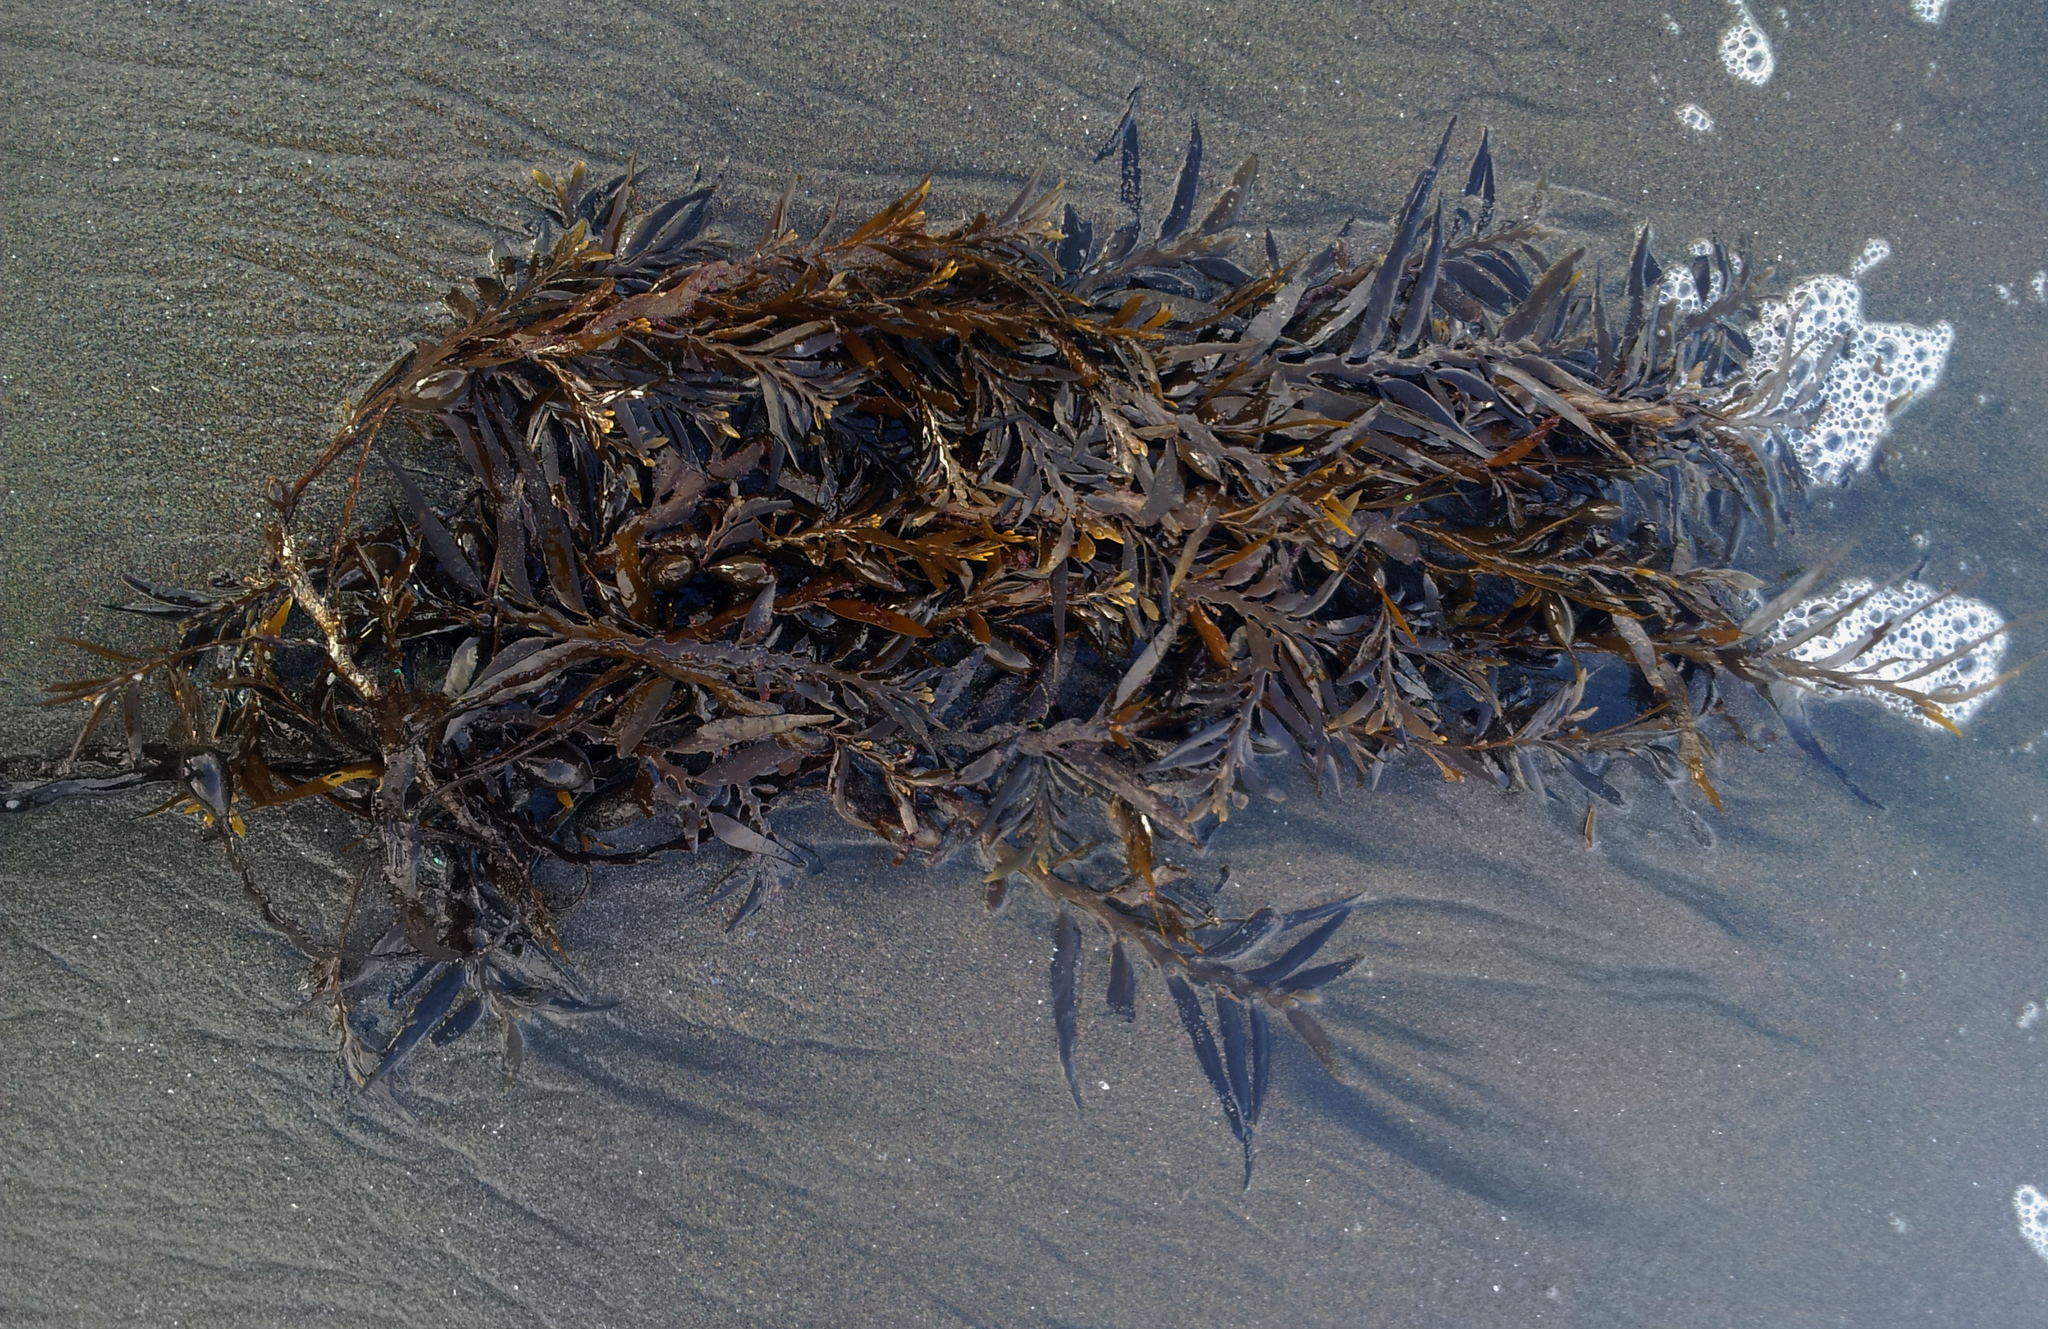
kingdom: Chromista
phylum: Ochrophyta
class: Phaeophyceae
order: Fucales
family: Sargassaceae
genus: Carpophyllum
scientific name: Carpophyllum maschalocarpum
